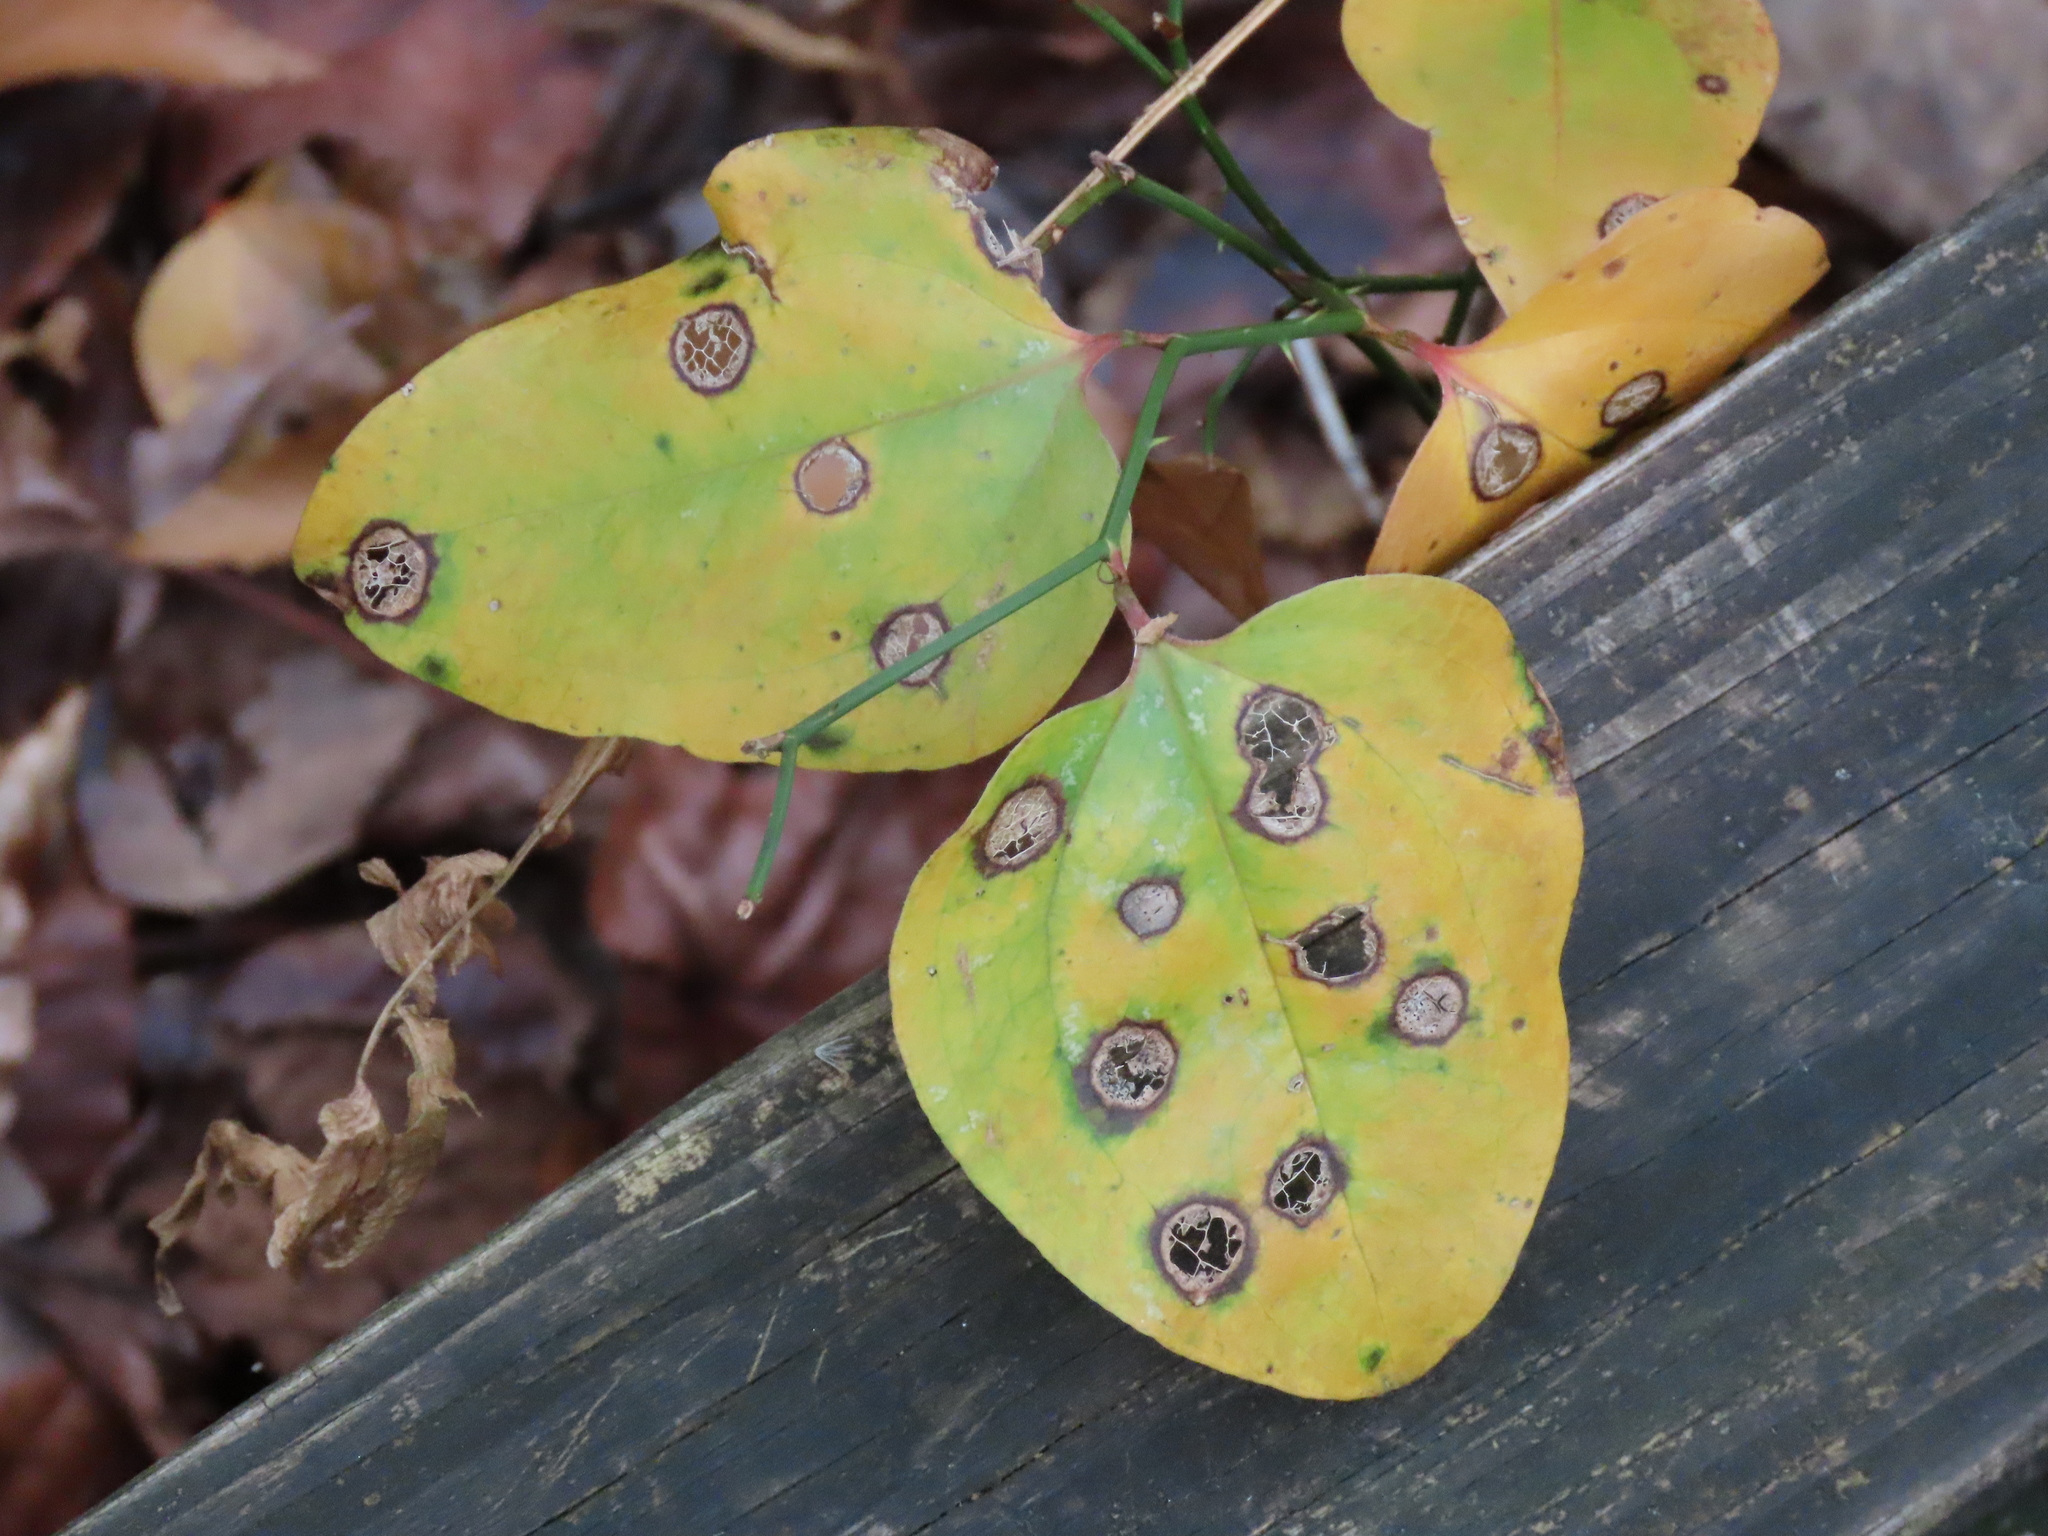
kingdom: Animalia
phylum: Arthropoda
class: Insecta
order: Diptera
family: Cecidomyiidae
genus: Meunieriella
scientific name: Meunieriella
